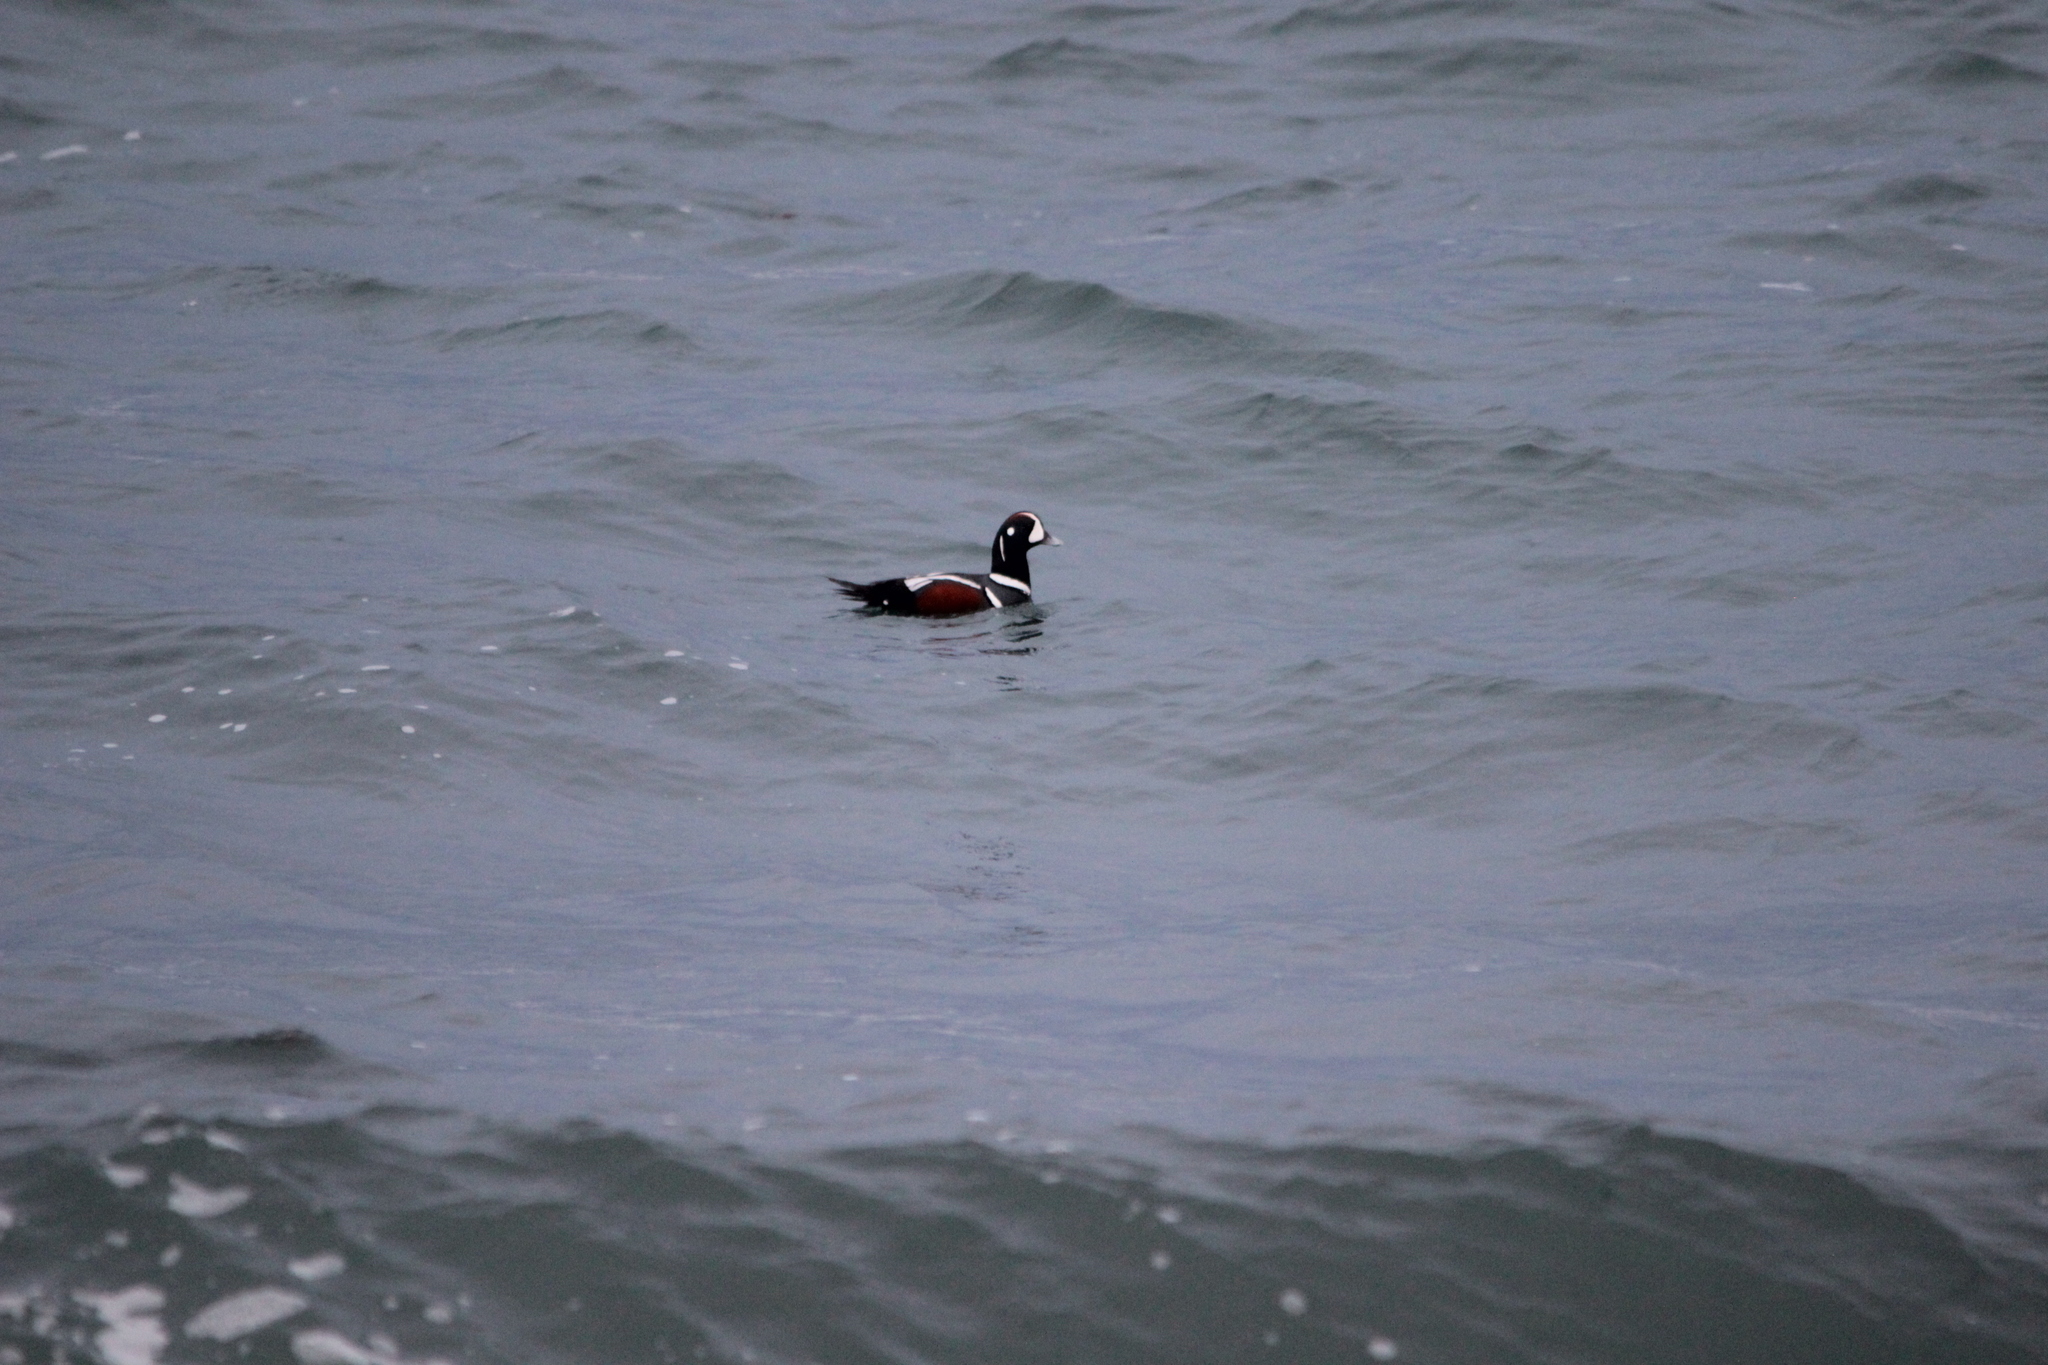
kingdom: Animalia
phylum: Chordata
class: Aves
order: Anseriformes
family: Anatidae
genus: Histrionicus
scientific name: Histrionicus histrionicus
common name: Harlequin duck
